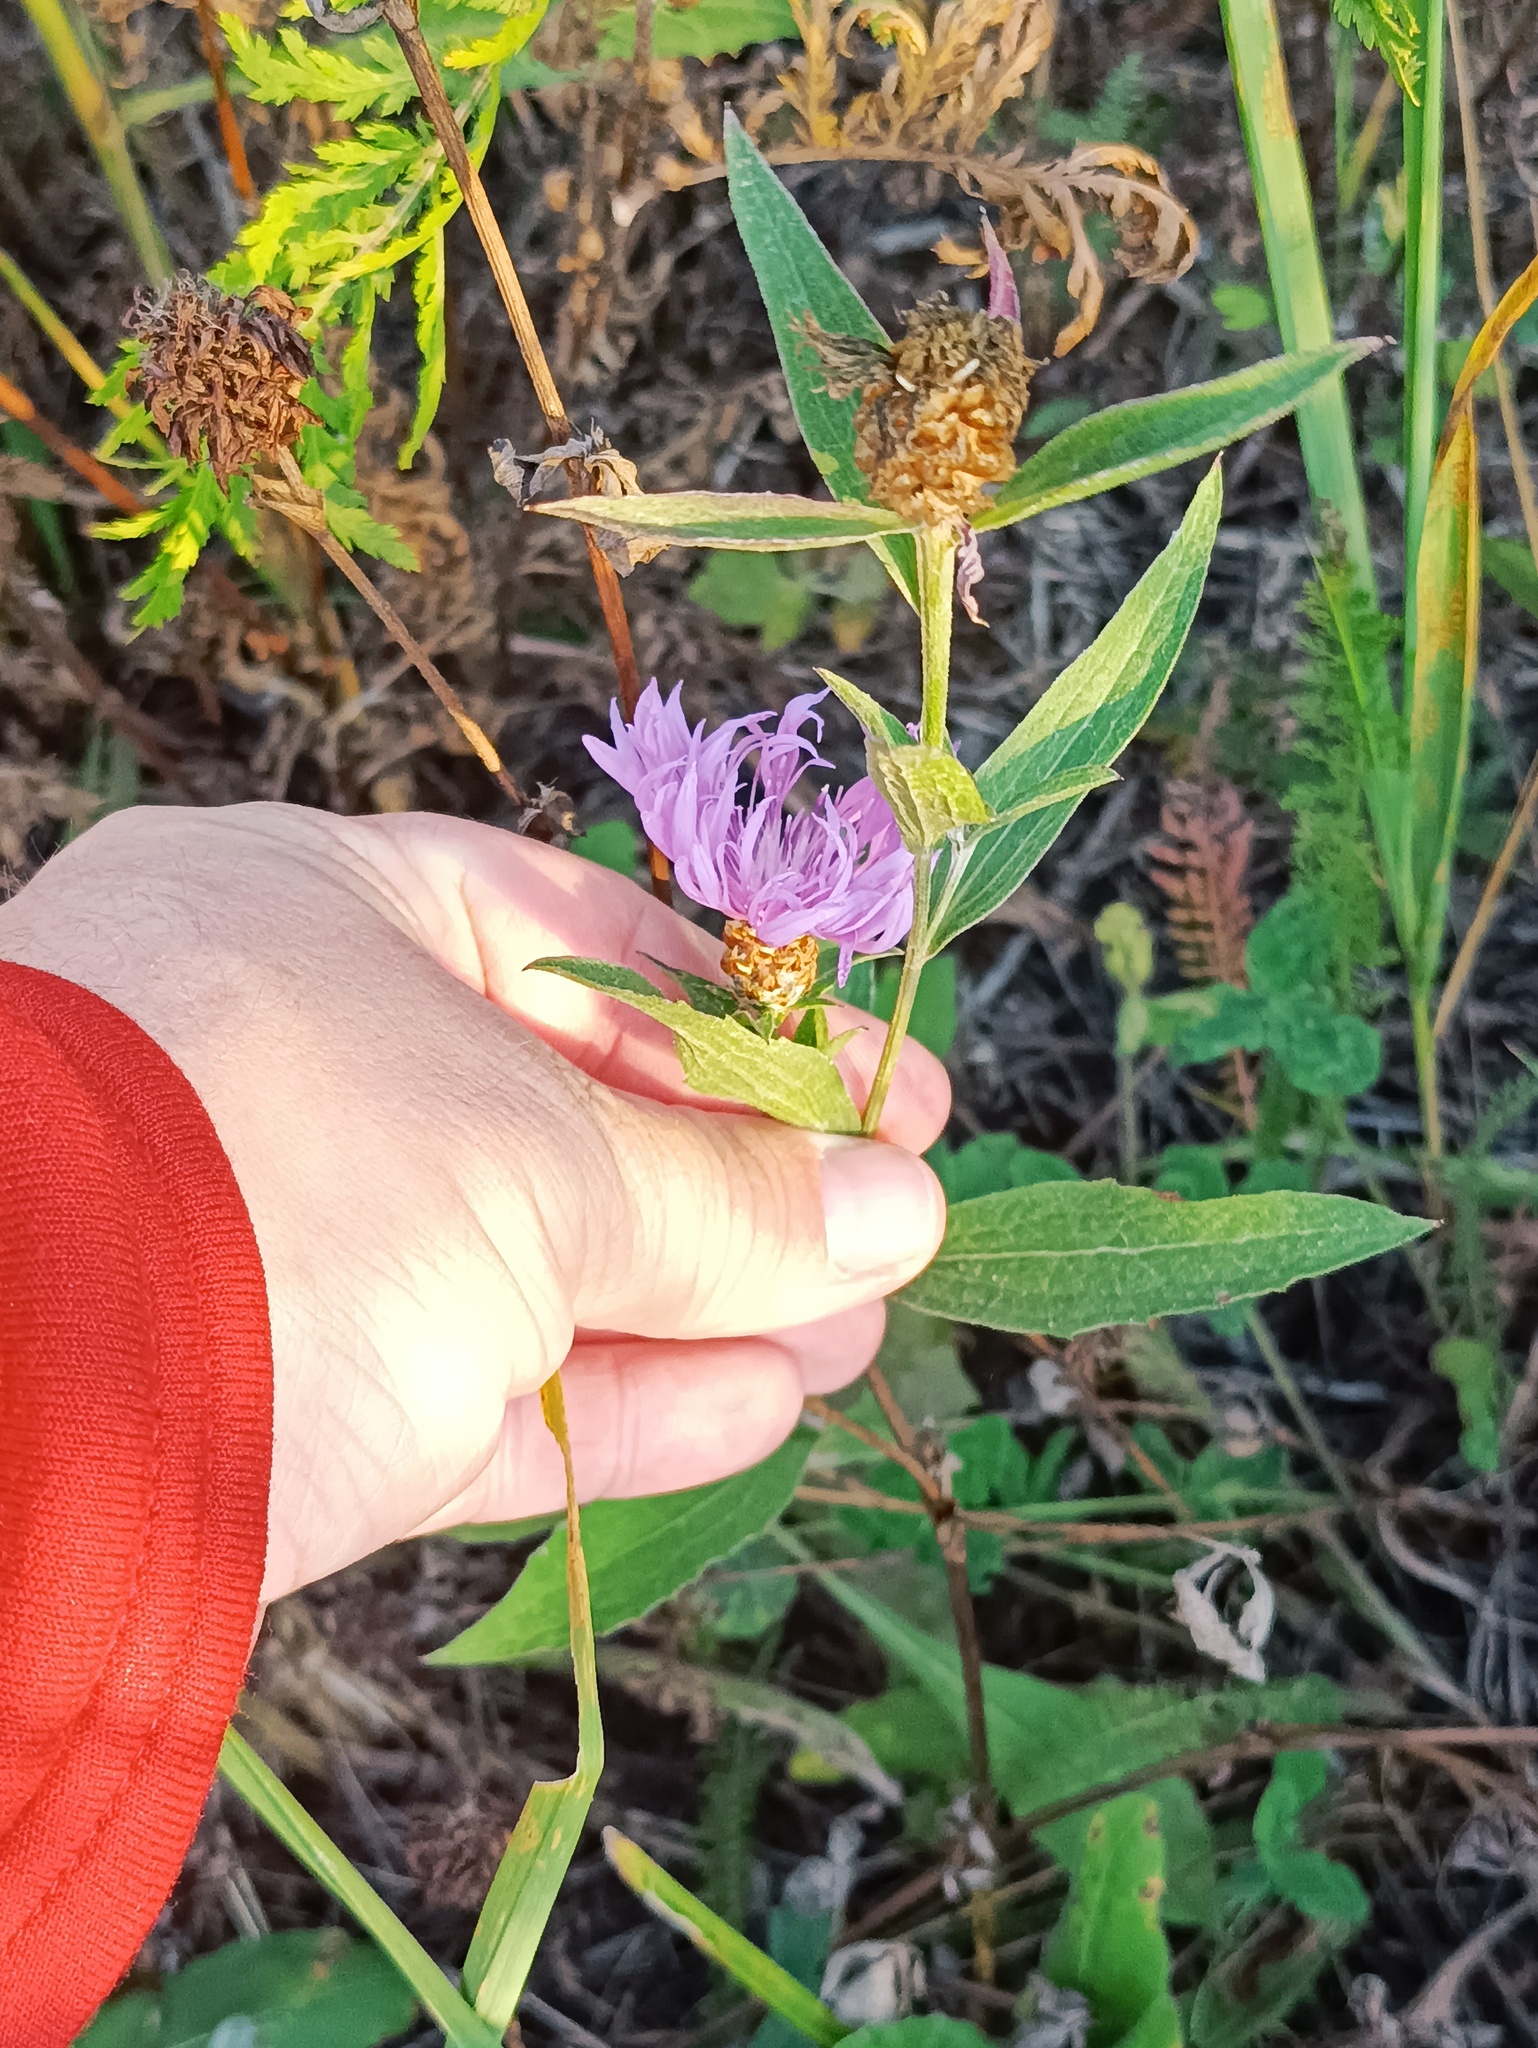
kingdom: Plantae
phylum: Tracheophyta
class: Magnoliopsida
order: Asterales
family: Asteraceae
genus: Centaurea
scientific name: Centaurea jacea
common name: Brown knapweed
